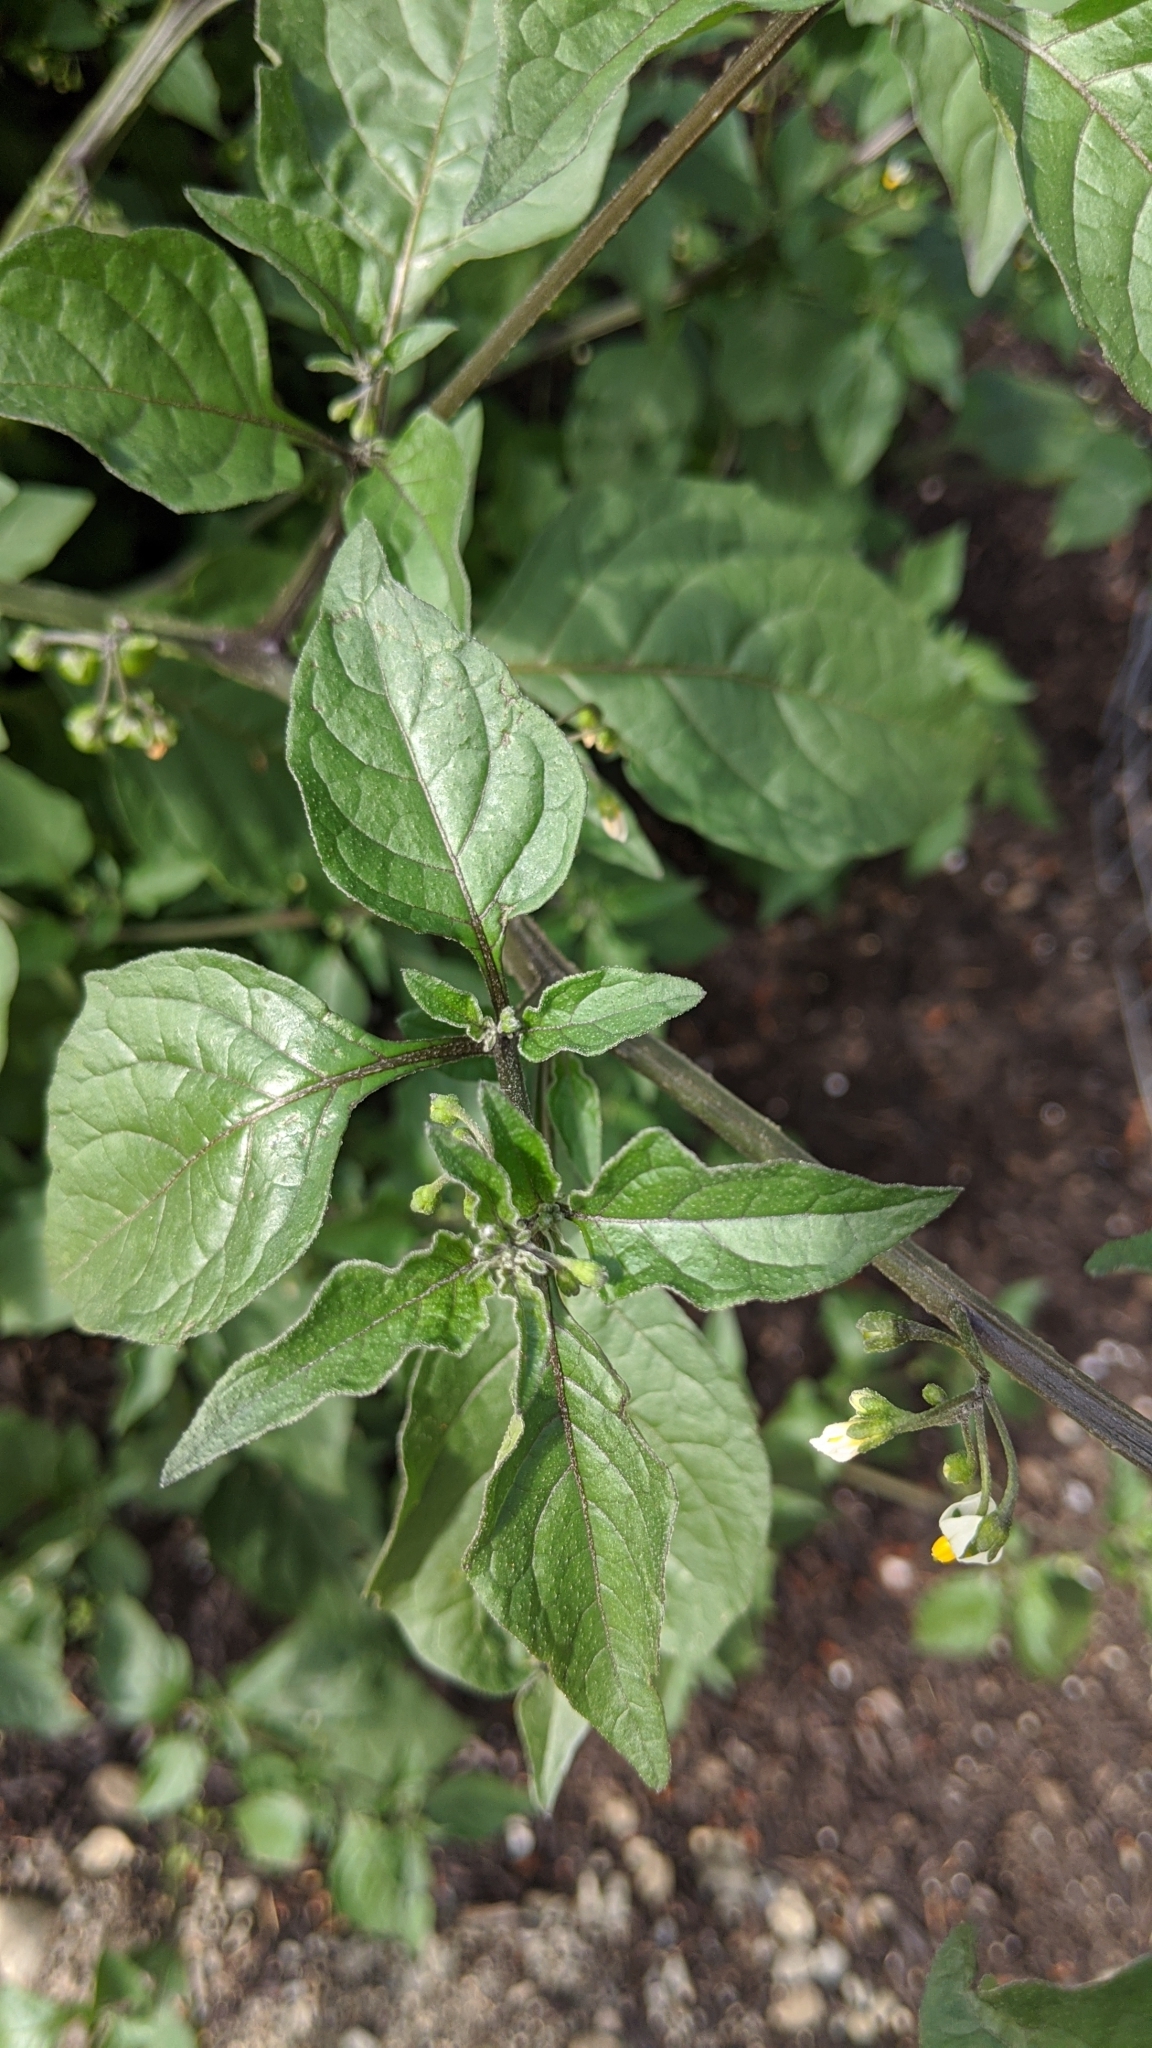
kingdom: Plantae
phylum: Tracheophyta
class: Magnoliopsida
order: Solanales
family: Solanaceae
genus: Solanum
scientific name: Solanum nigrum
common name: Black nightshade
